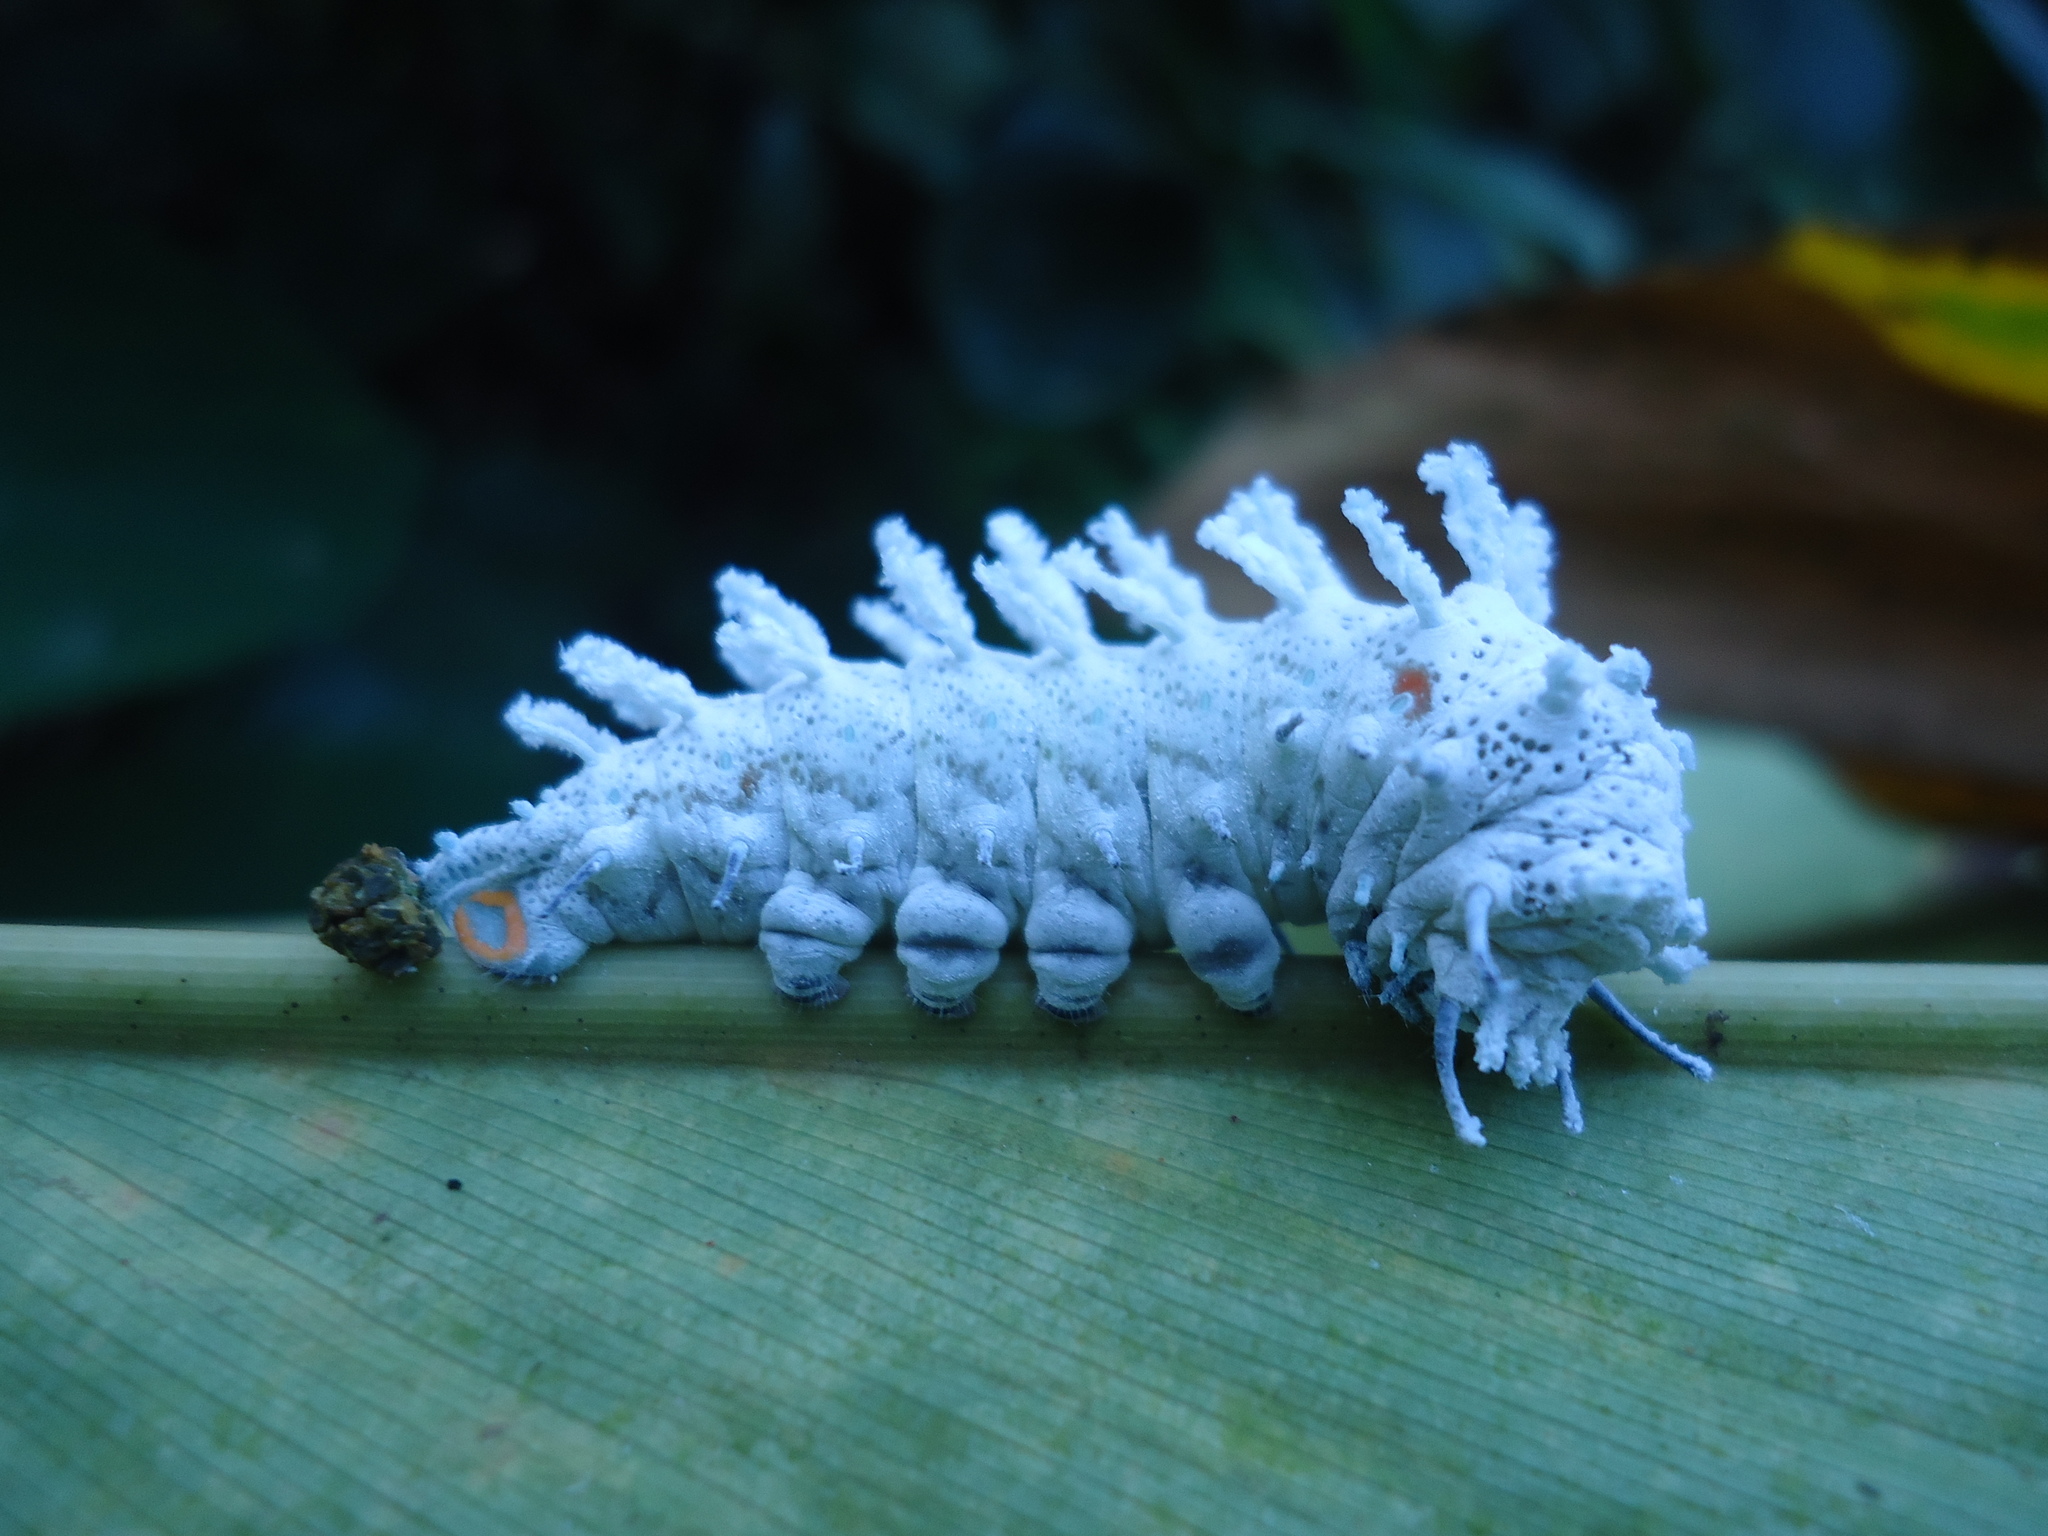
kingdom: Animalia
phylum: Arthropoda
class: Insecta
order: Lepidoptera
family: Saturniidae
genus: Attacus
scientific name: Attacus taprobanis
